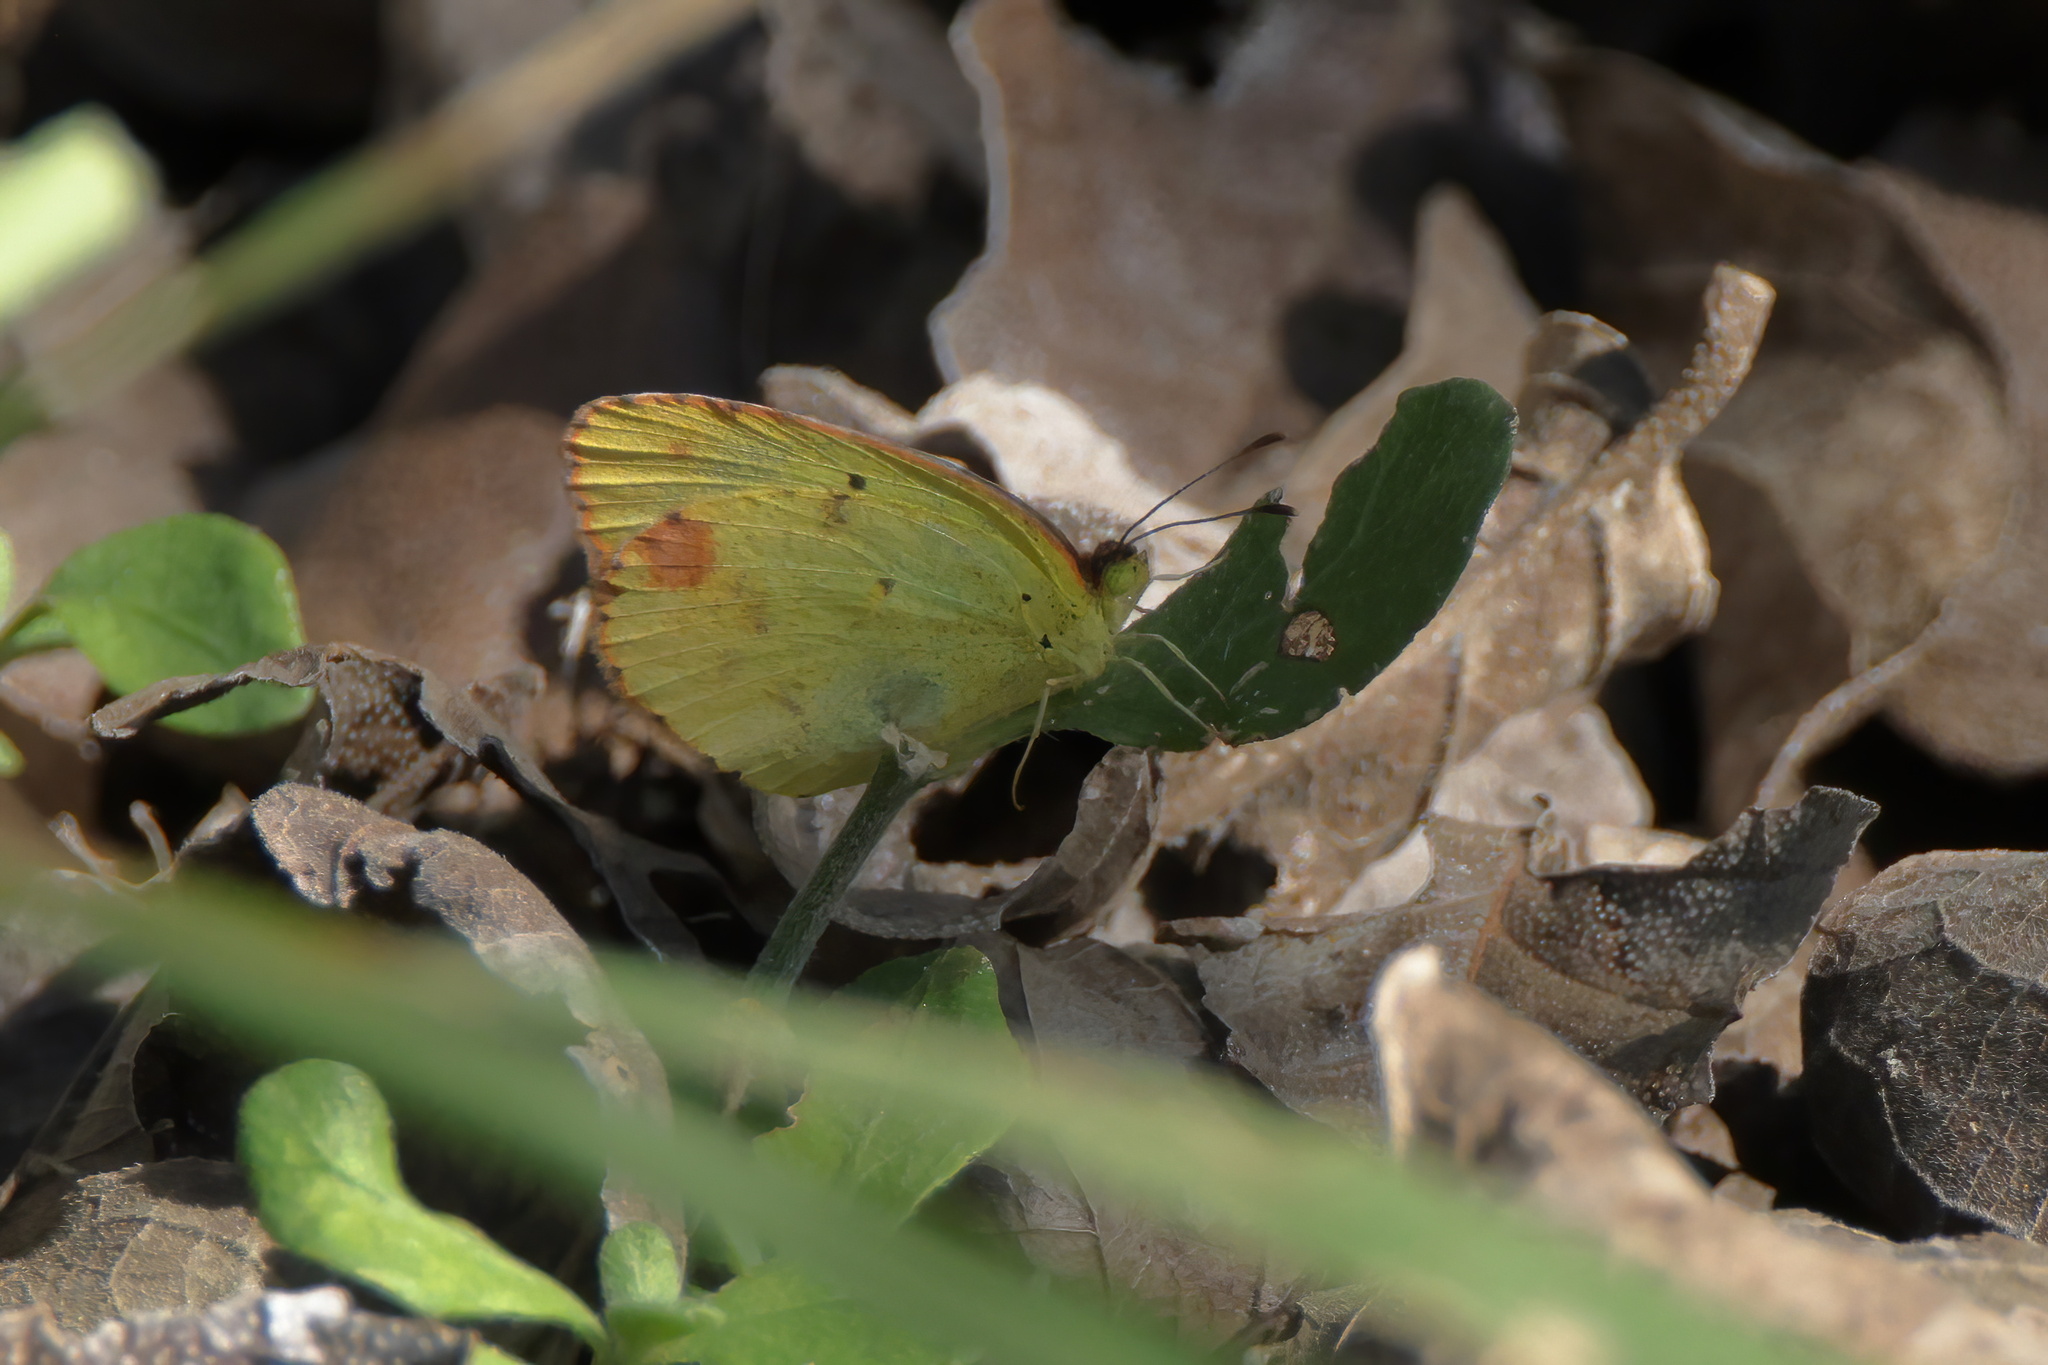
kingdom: Animalia
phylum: Arthropoda
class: Insecta
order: Lepidoptera
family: Pieridae
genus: Pyrisitia
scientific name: Pyrisitia lisa
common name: Little yellow
